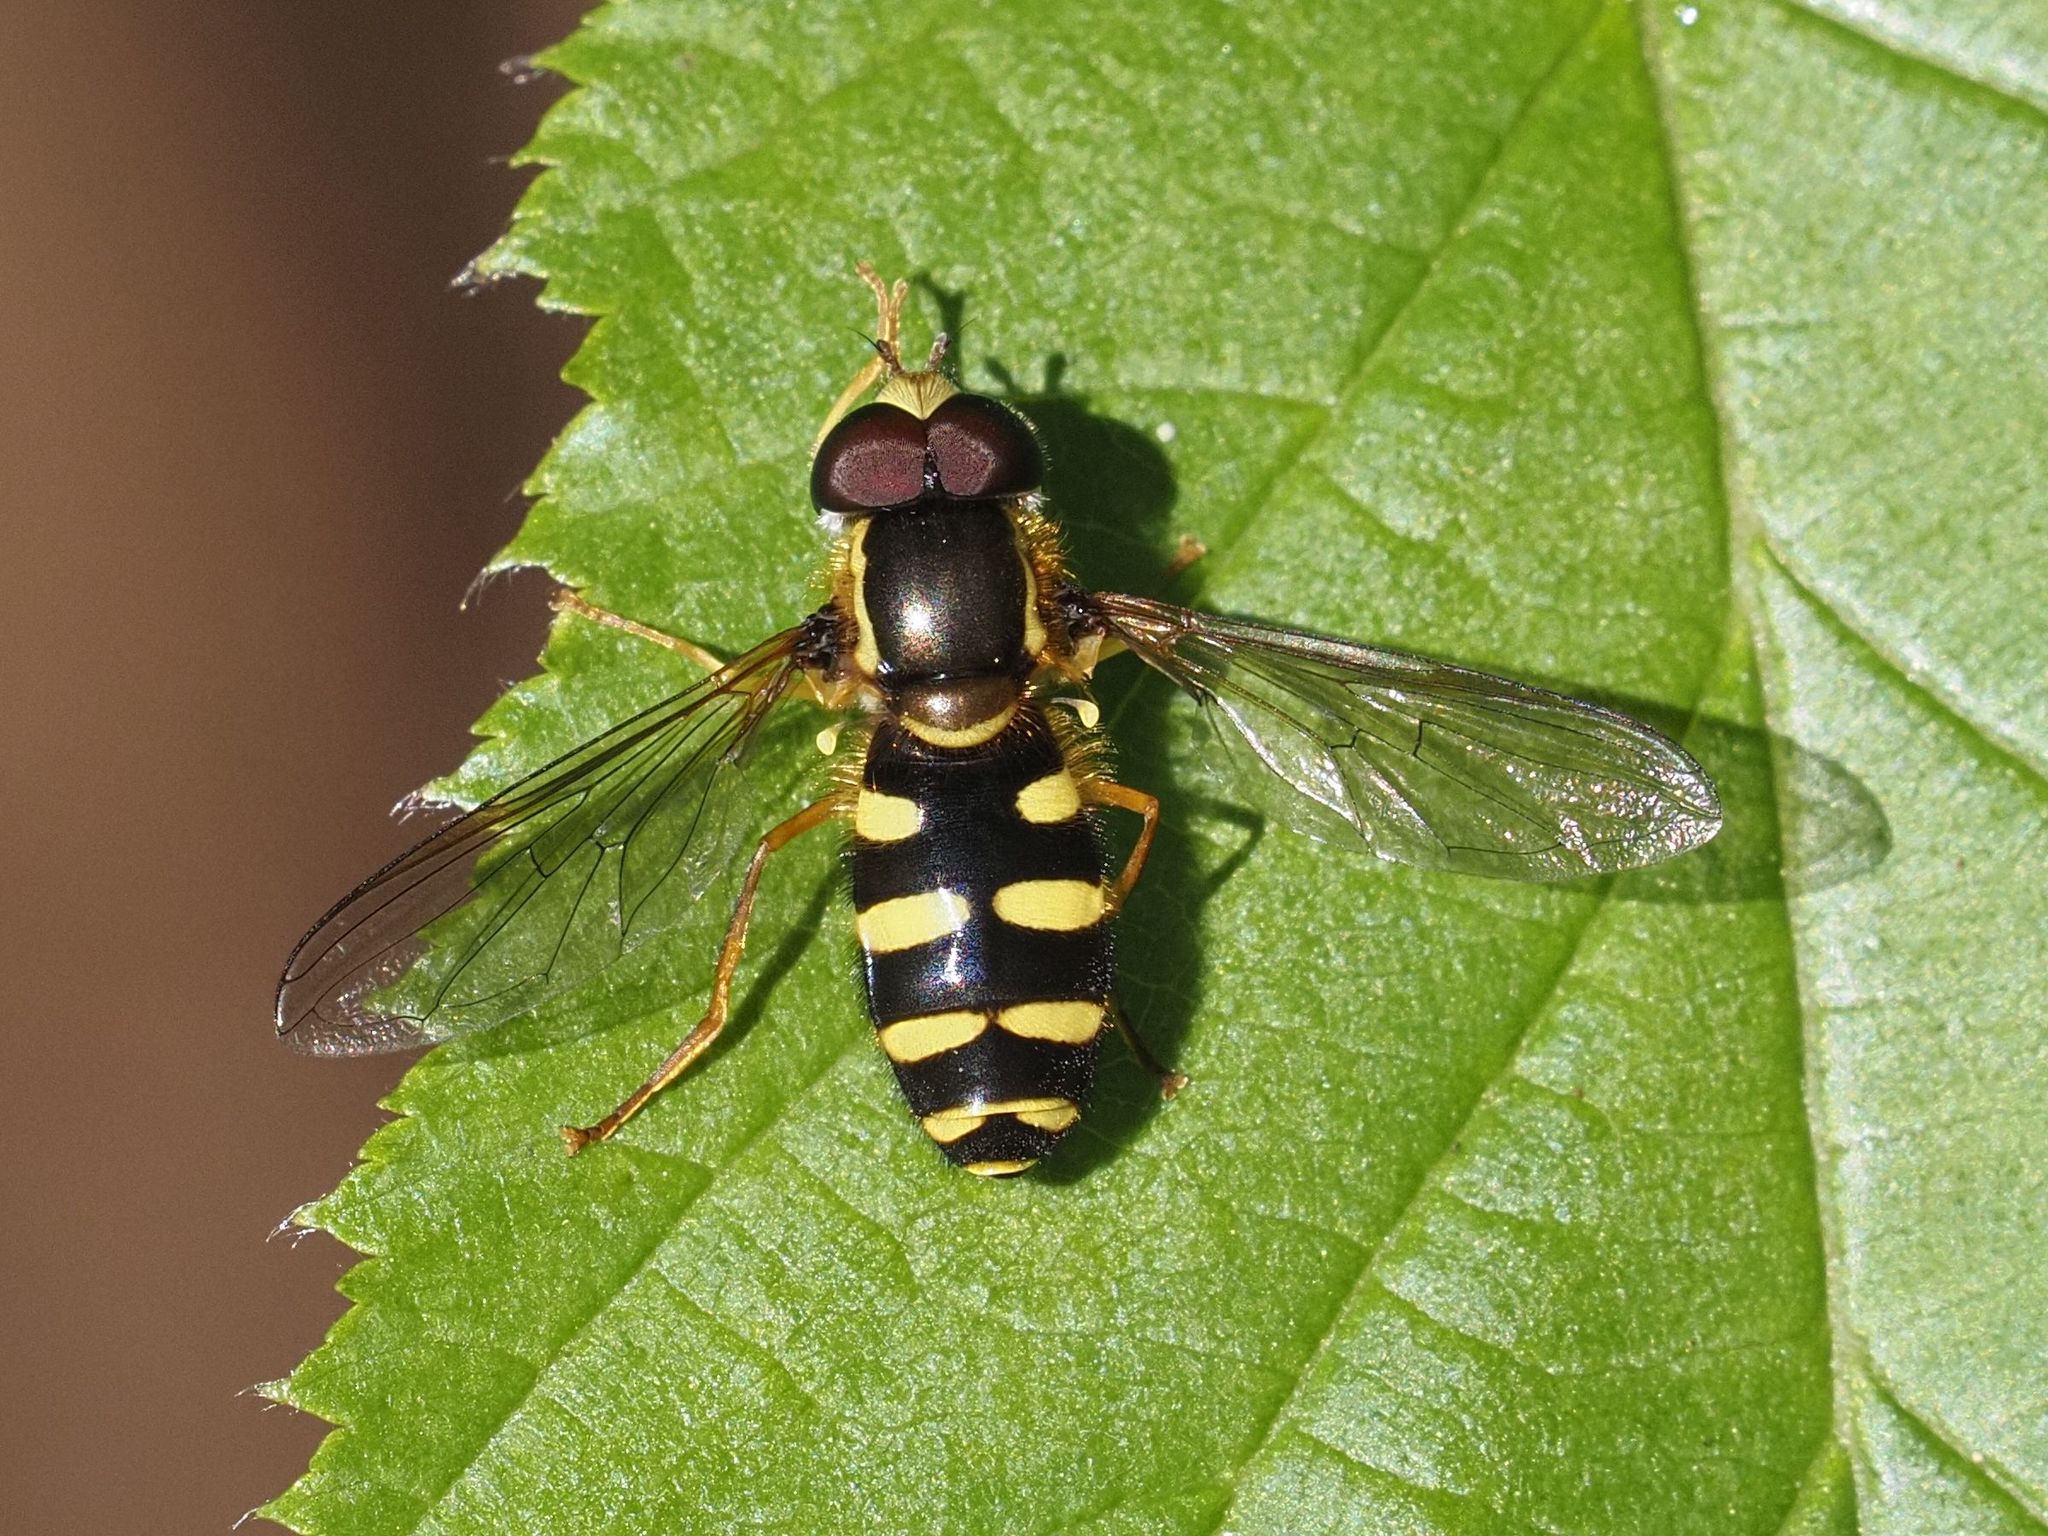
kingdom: Animalia
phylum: Arthropoda
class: Insecta
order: Diptera
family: Syrphidae
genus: Philhelius
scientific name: Philhelius laetus
